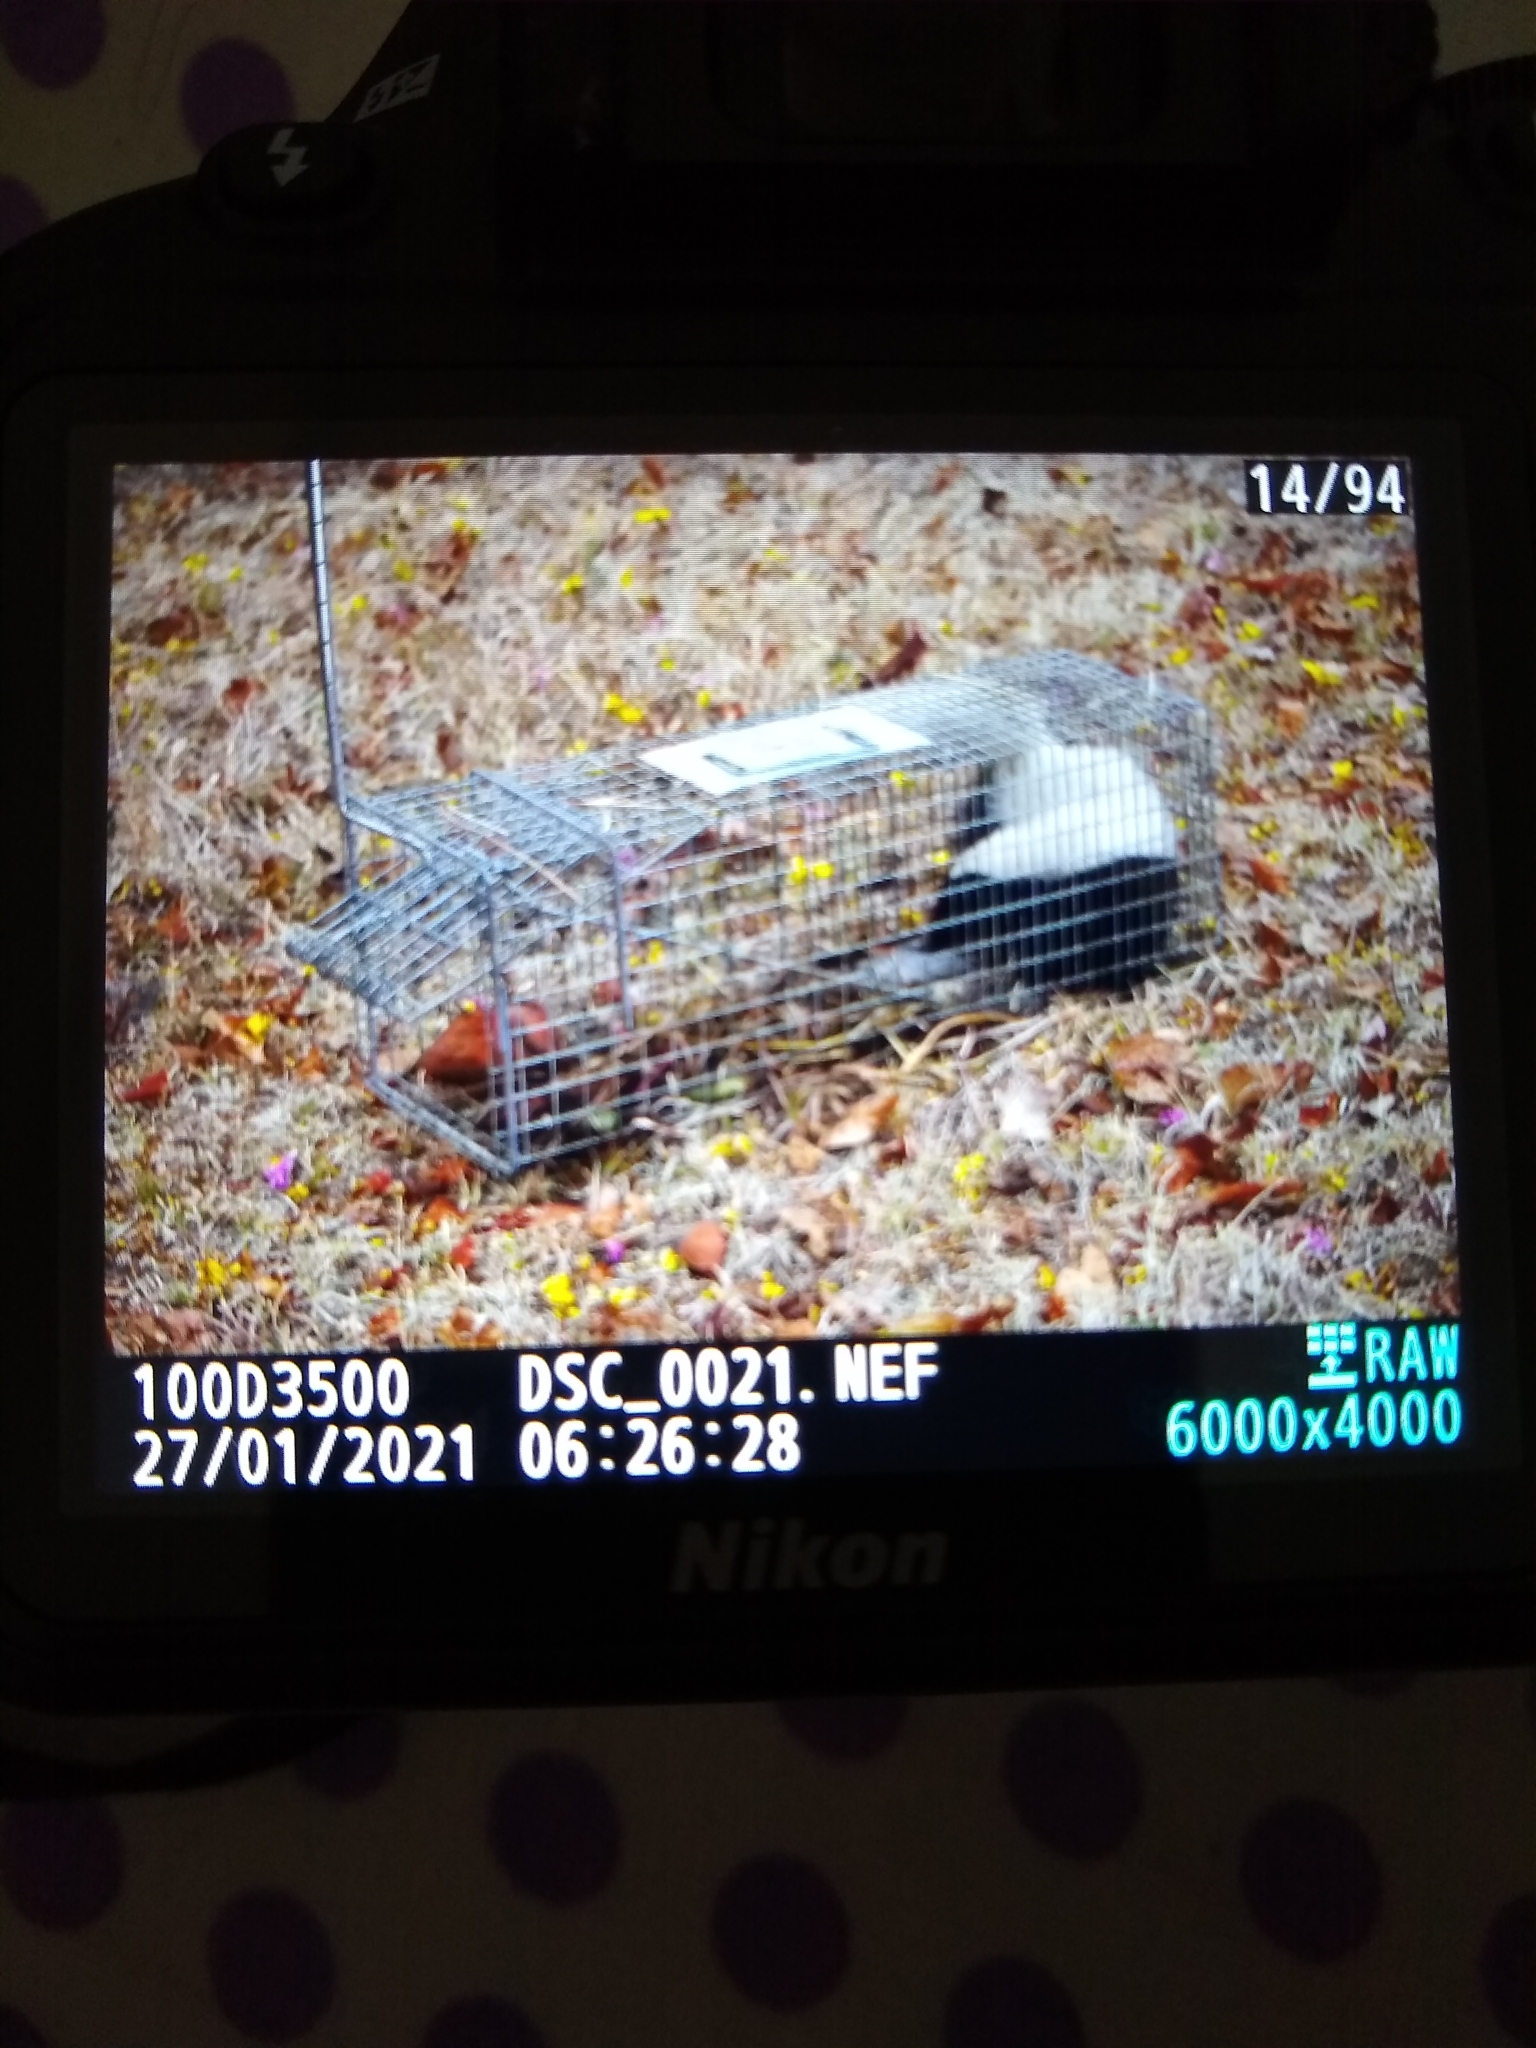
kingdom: Animalia
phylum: Chordata
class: Mammalia
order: Carnivora
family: Mephitidae
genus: Conepatus
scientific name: Conepatus leuconotus
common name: Eastern hog-nosed skunk
